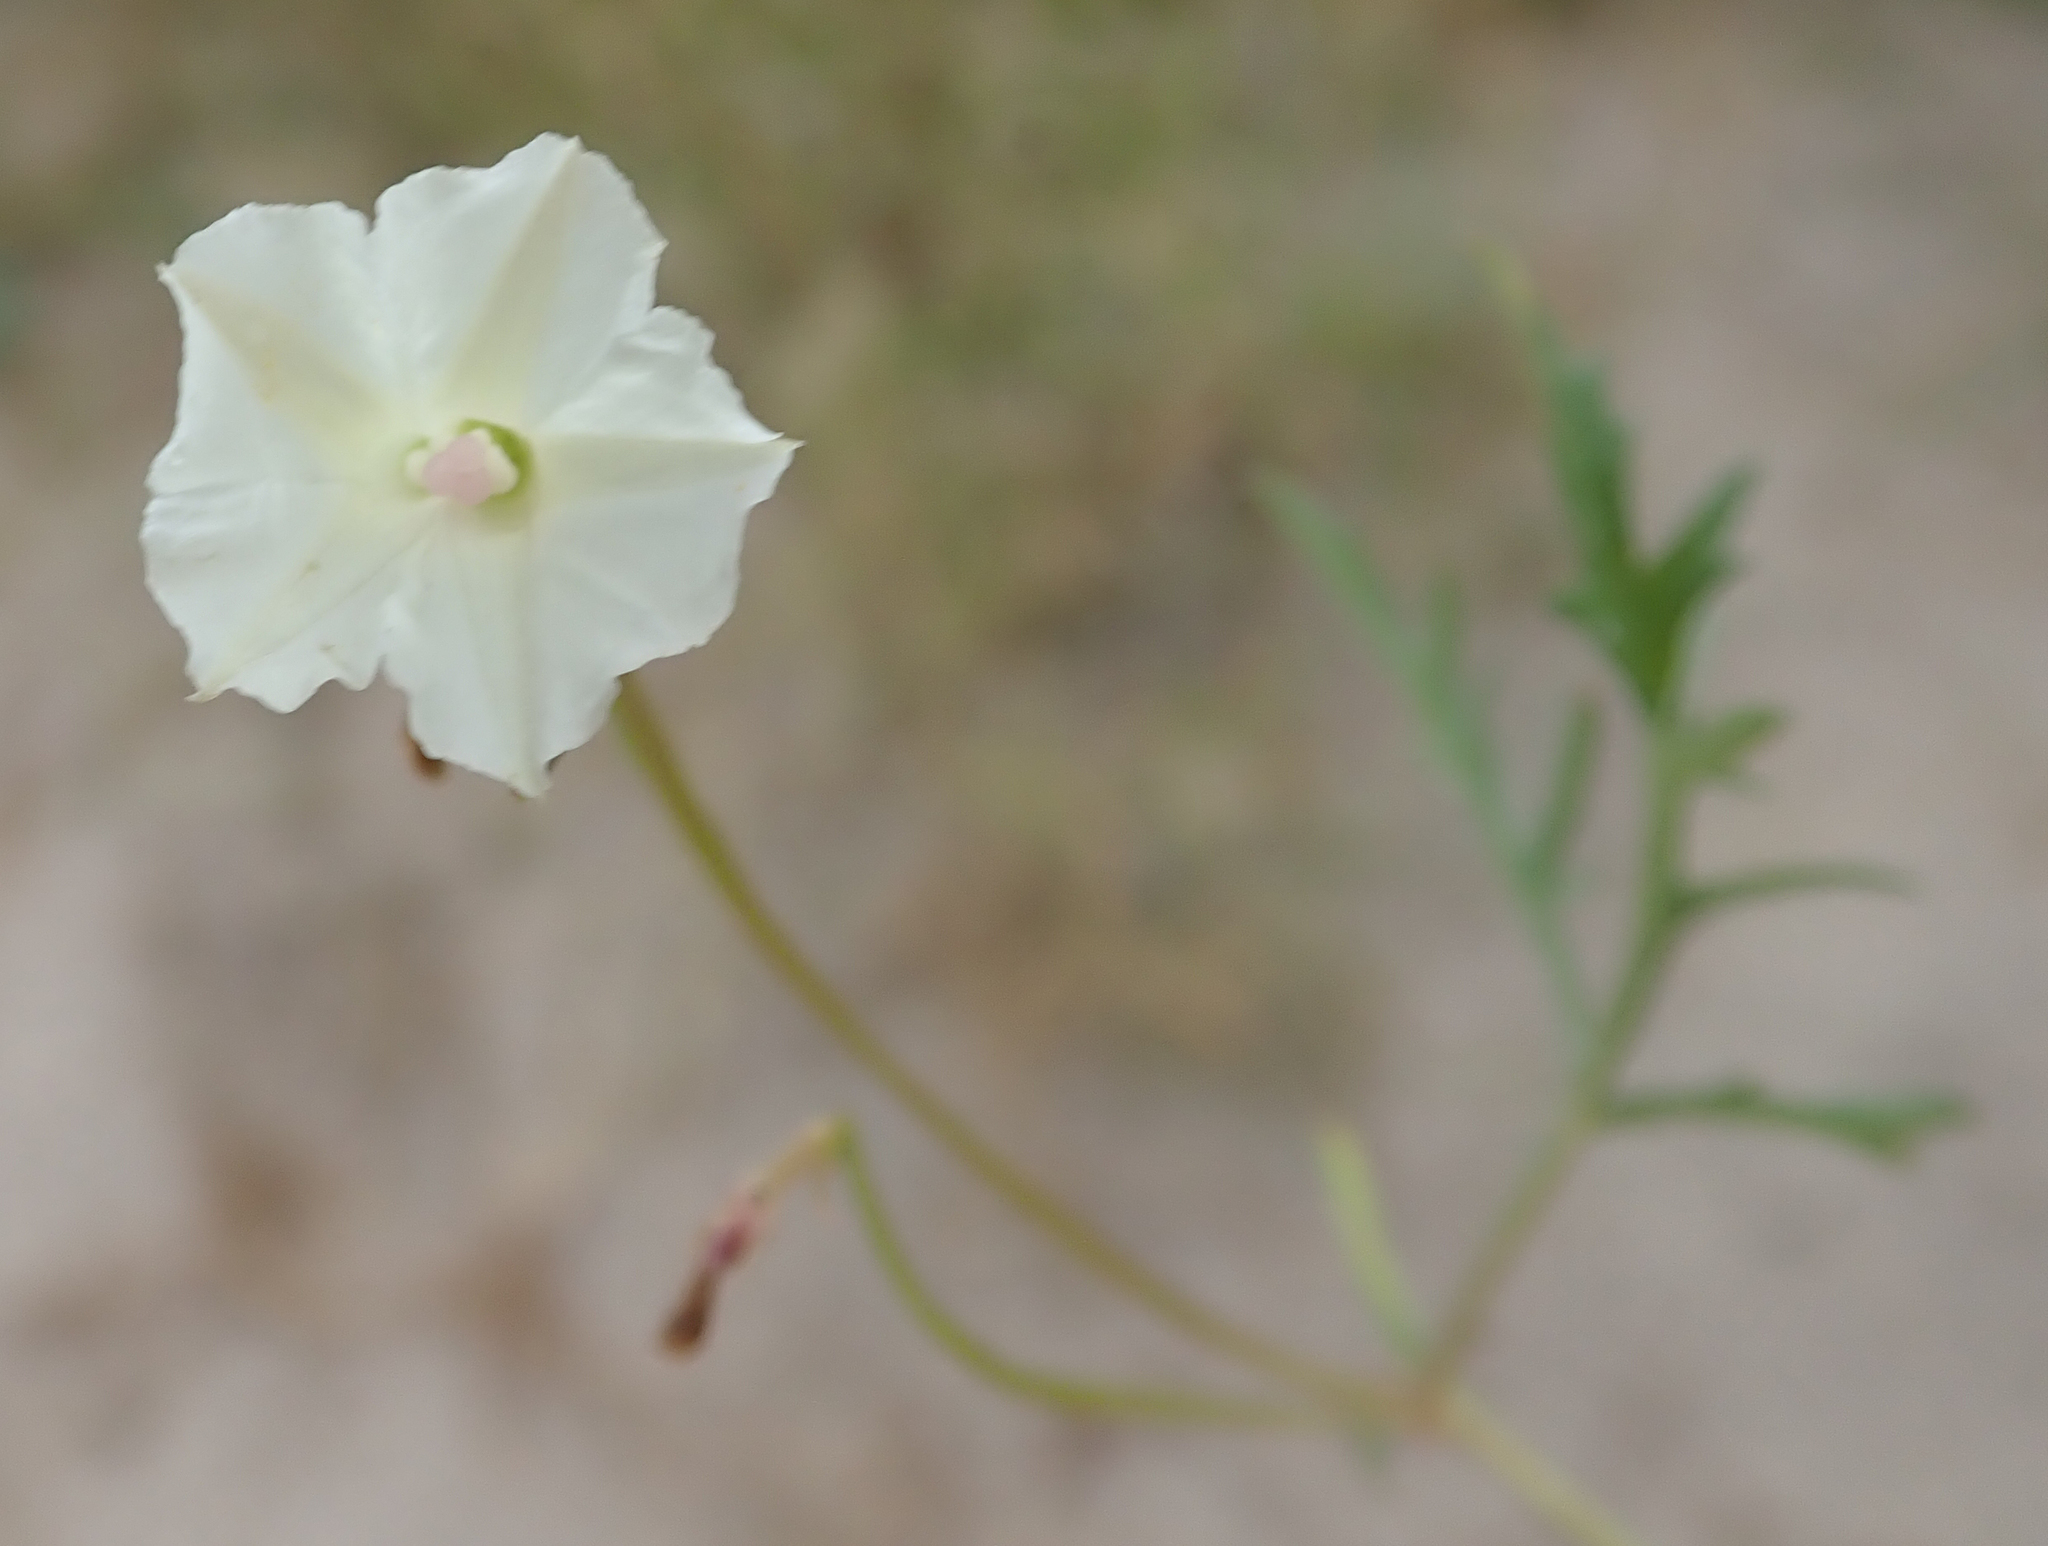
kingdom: Plantae
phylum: Tracheophyta
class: Magnoliopsida
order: Solanales
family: Convolvulaceae
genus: Ipomoea
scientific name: Ipomoea coptica
